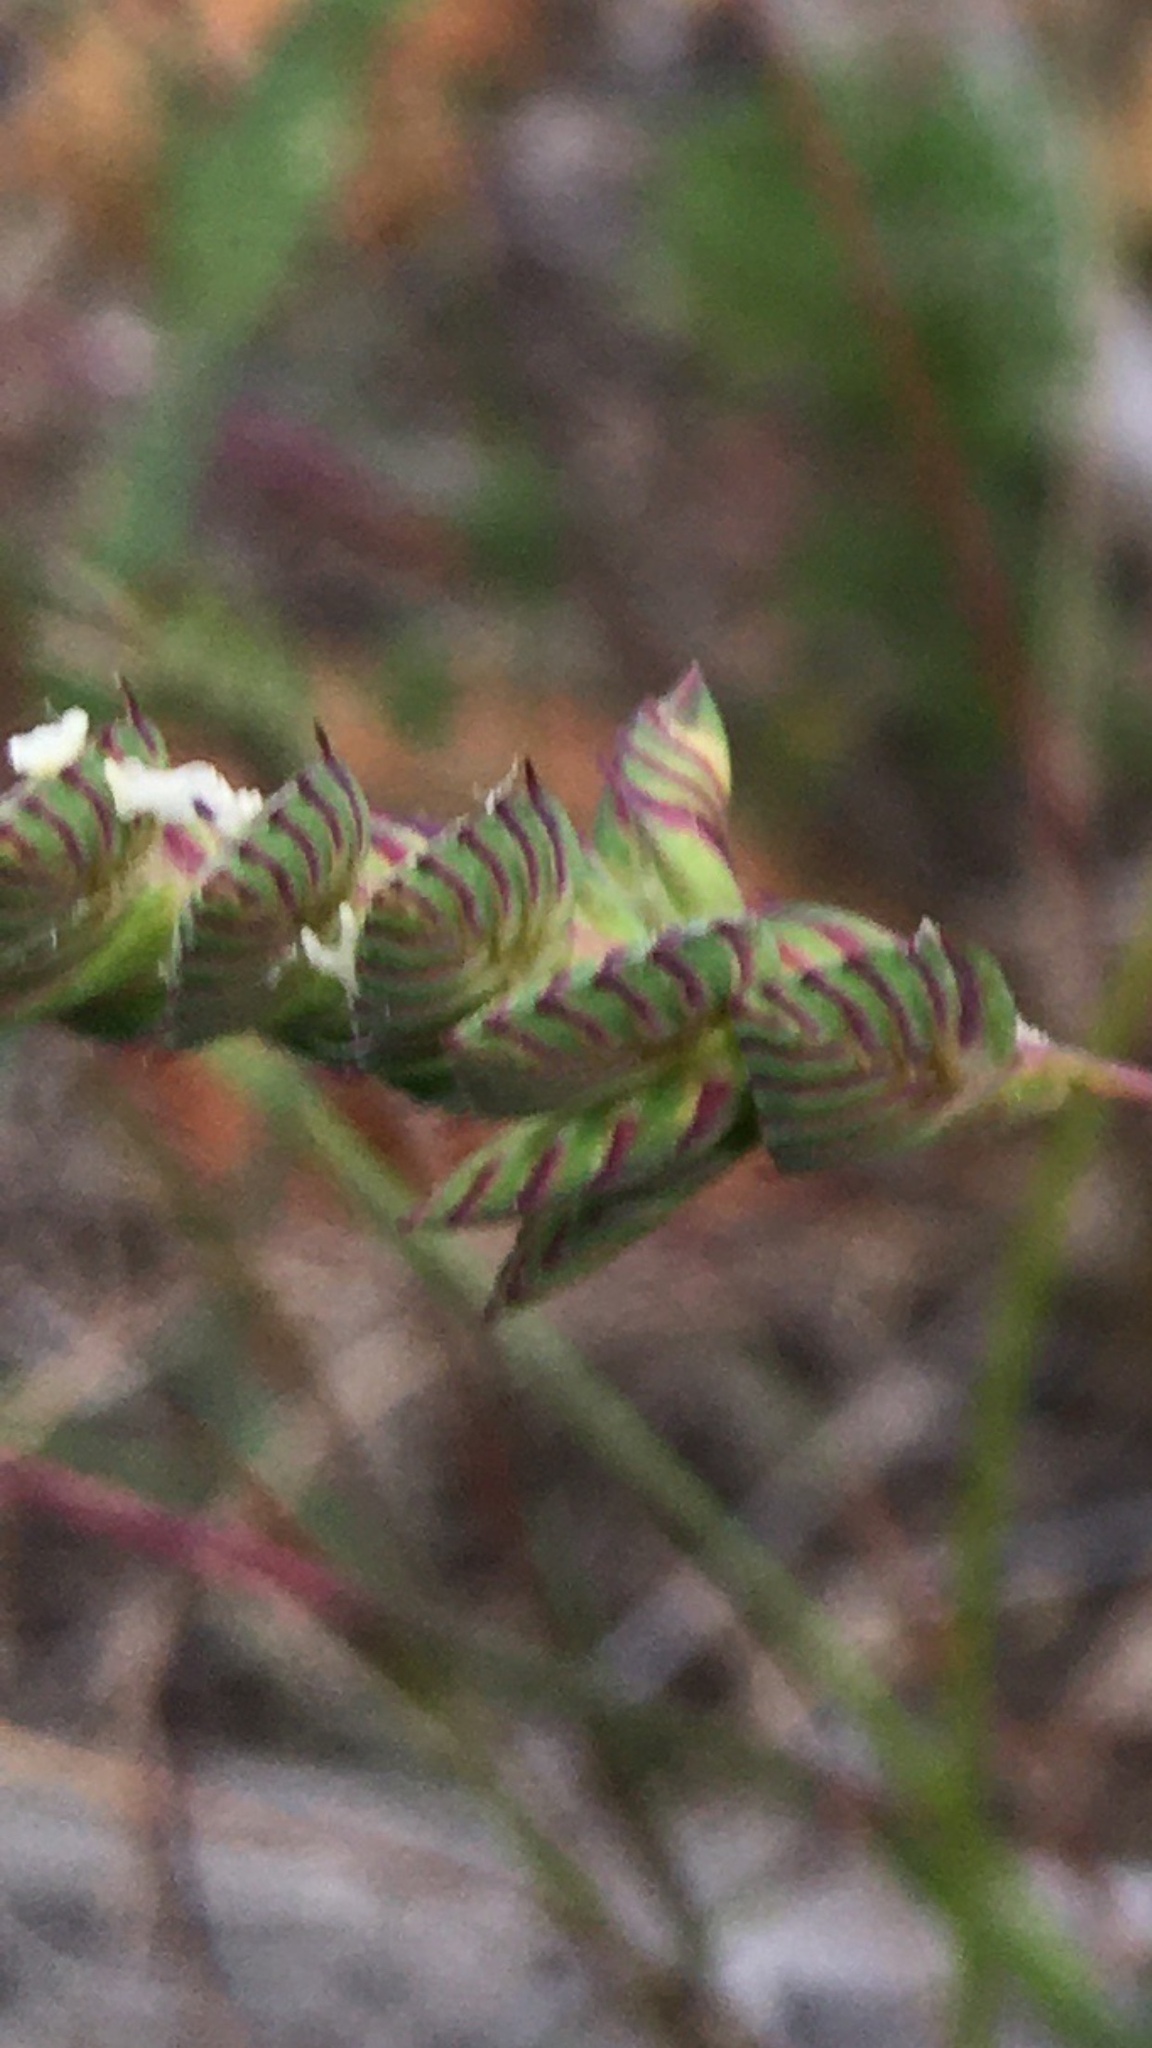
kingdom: Plantae
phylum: Tracheophyta
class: Liliopsida
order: Poales
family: Poaceae
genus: Tribolium
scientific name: Tribolium uniolae
